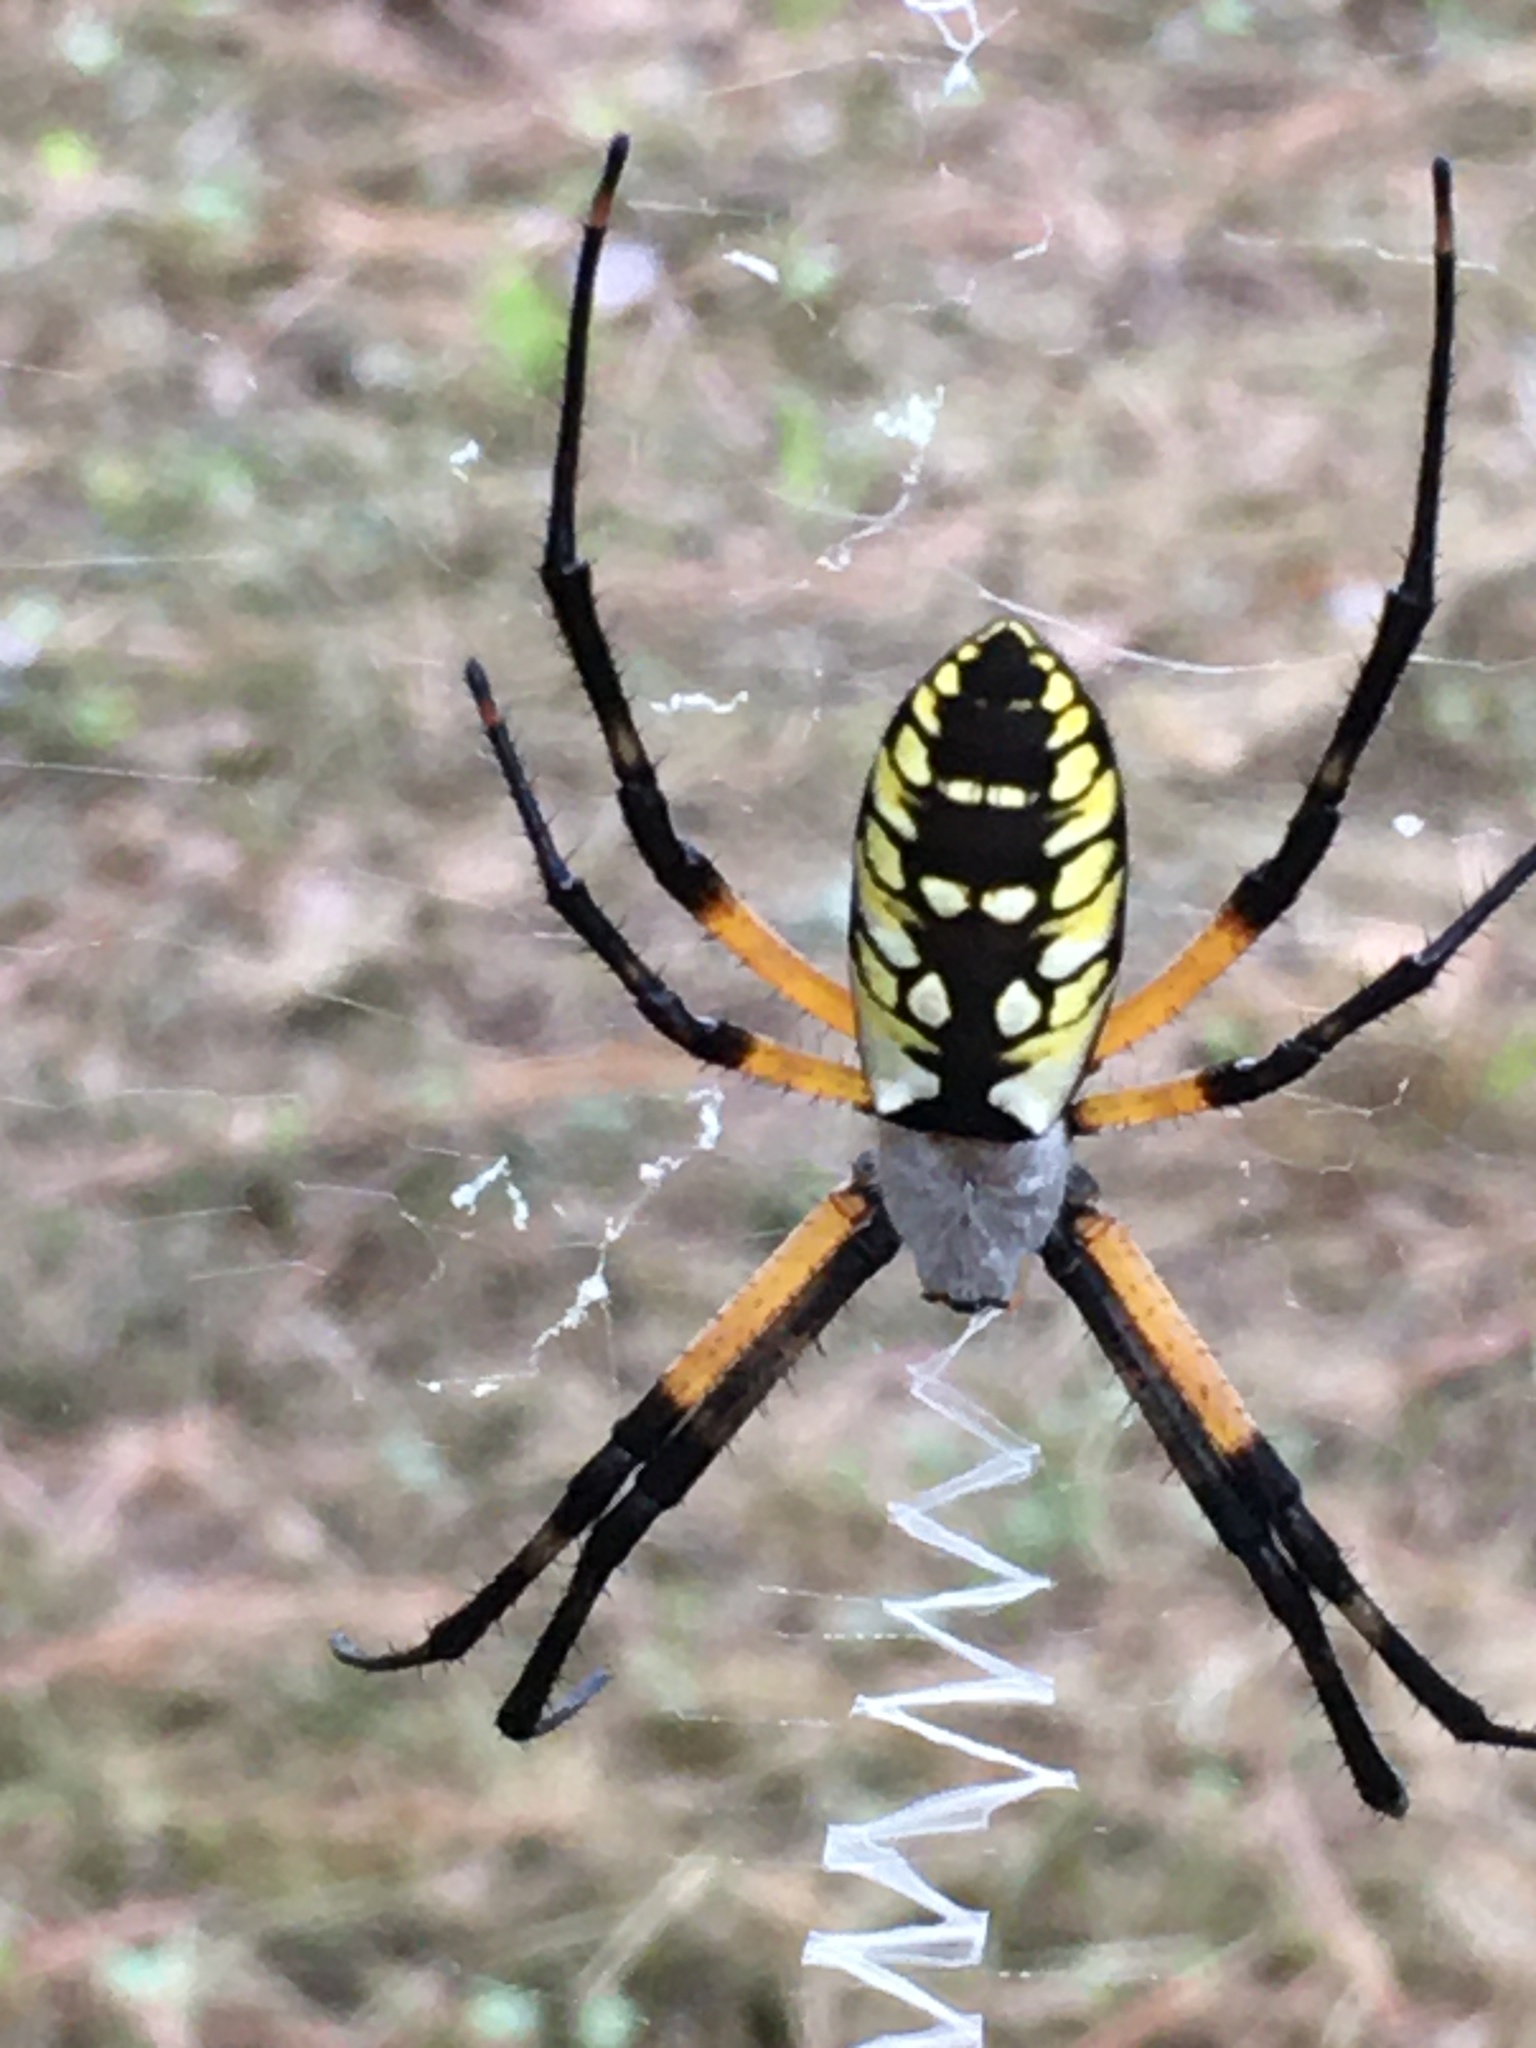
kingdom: Animalia
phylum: Arthropoda
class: Arachnida
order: Araneae
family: Araneidae
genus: Argiope
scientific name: Argiope aurantia
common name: Orb weavers
